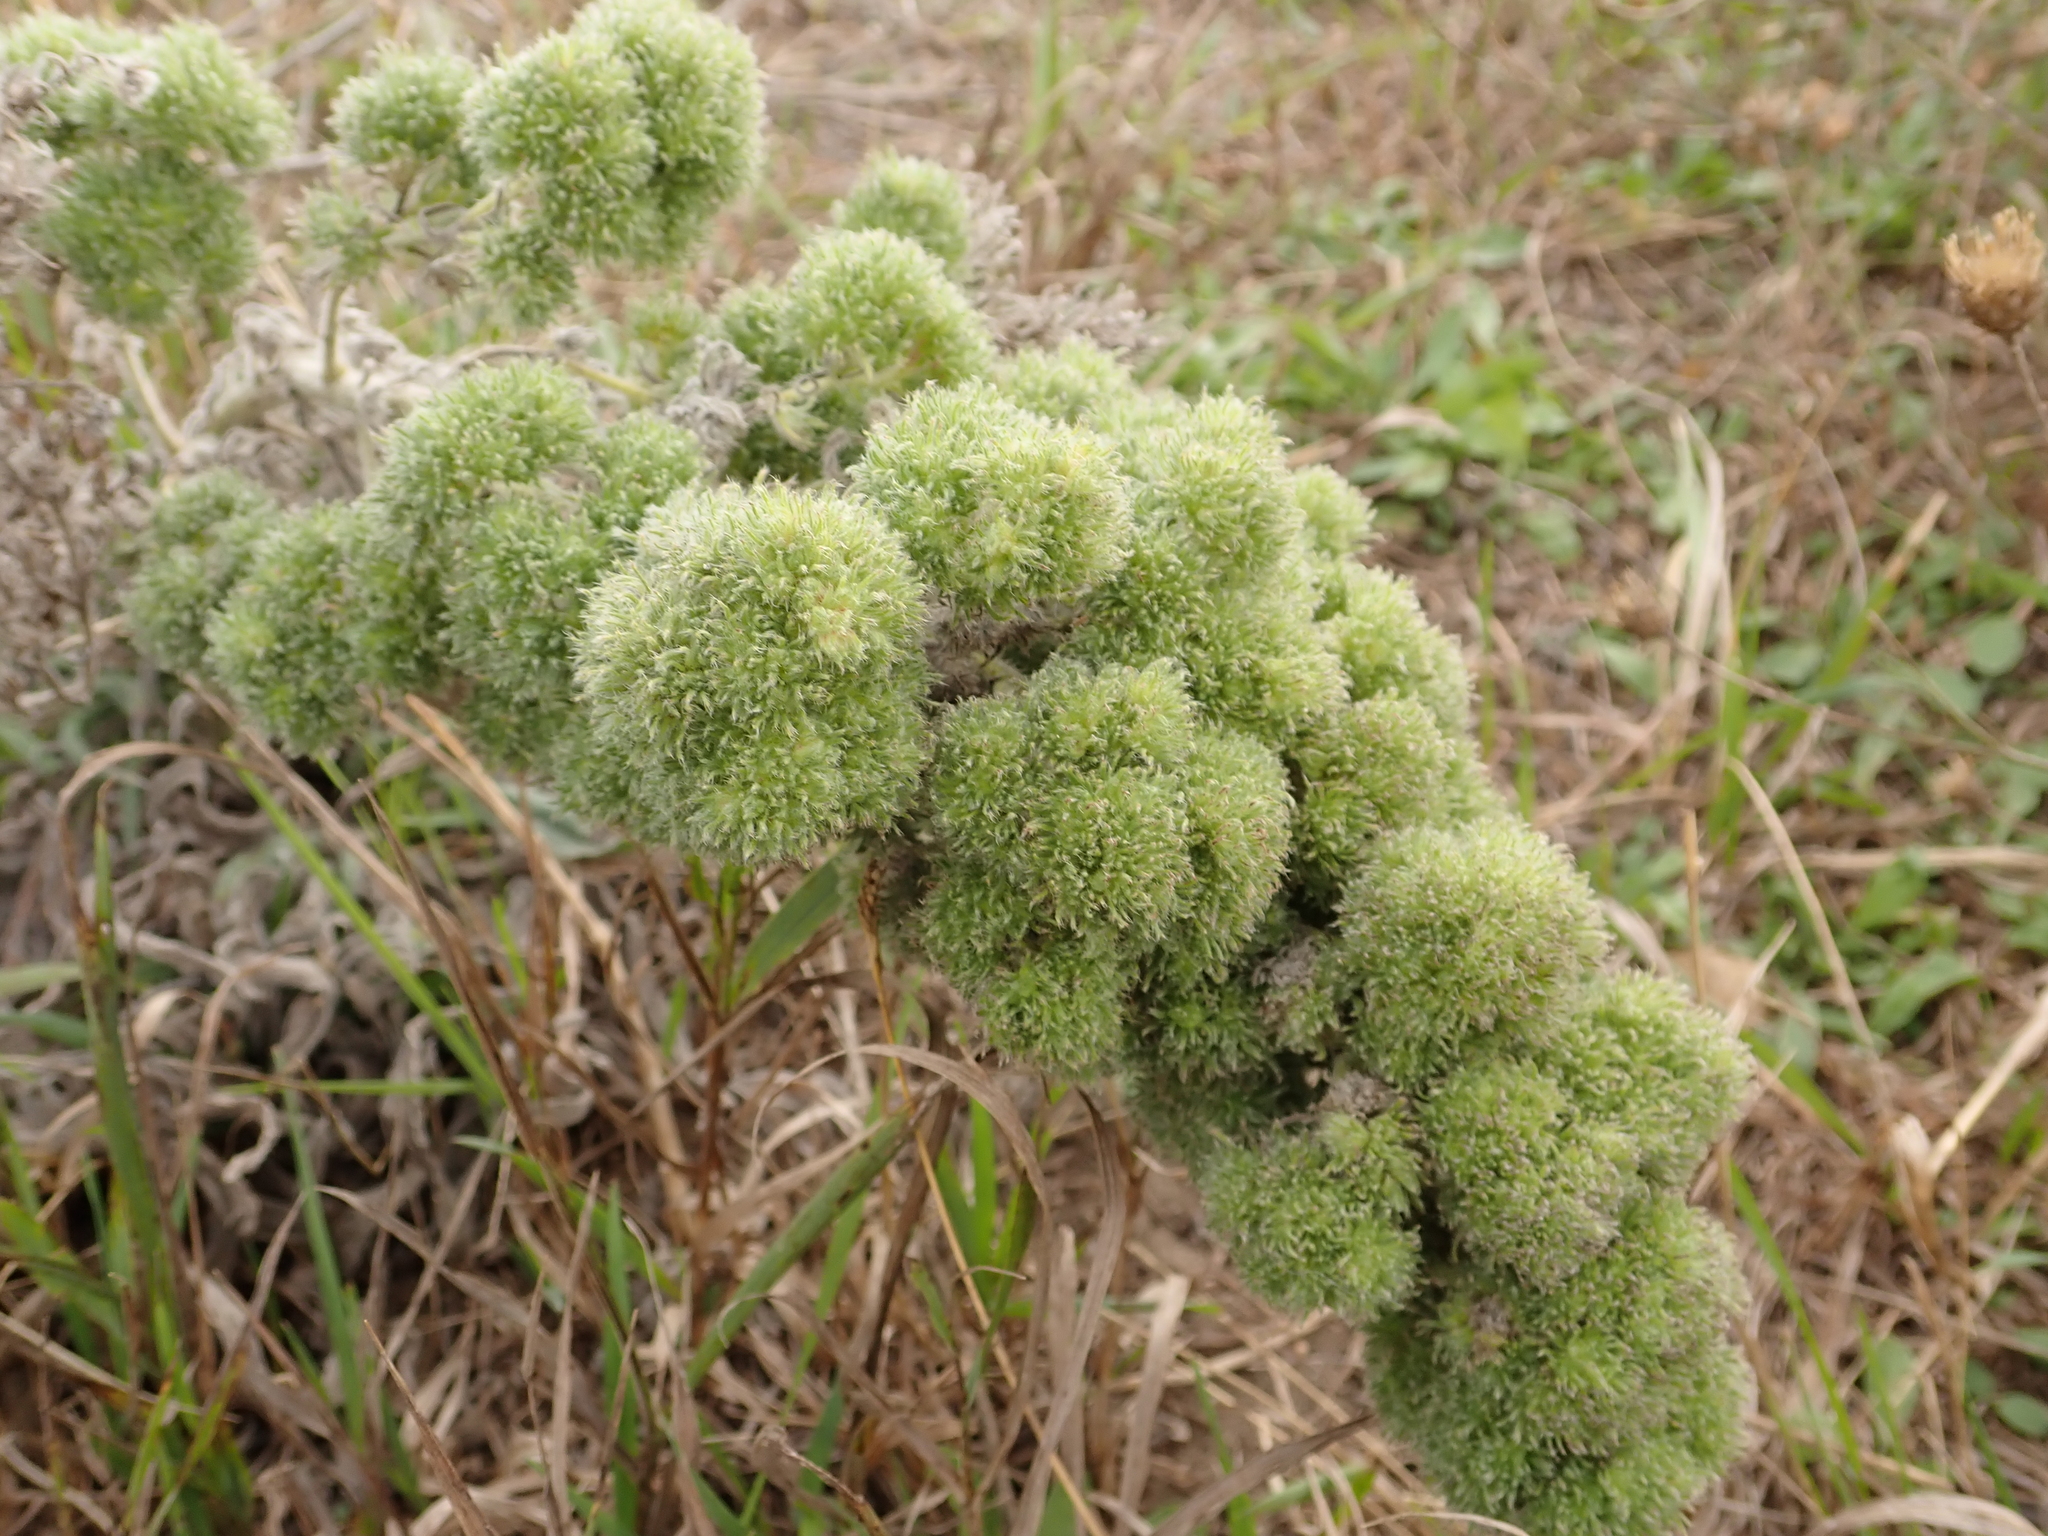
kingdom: Plantae
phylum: Tracheophyta
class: Magnoliopsida
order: Boraginales
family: Boraginaceae
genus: Echium
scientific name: Echium vulgare
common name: Common viper's bugloss
